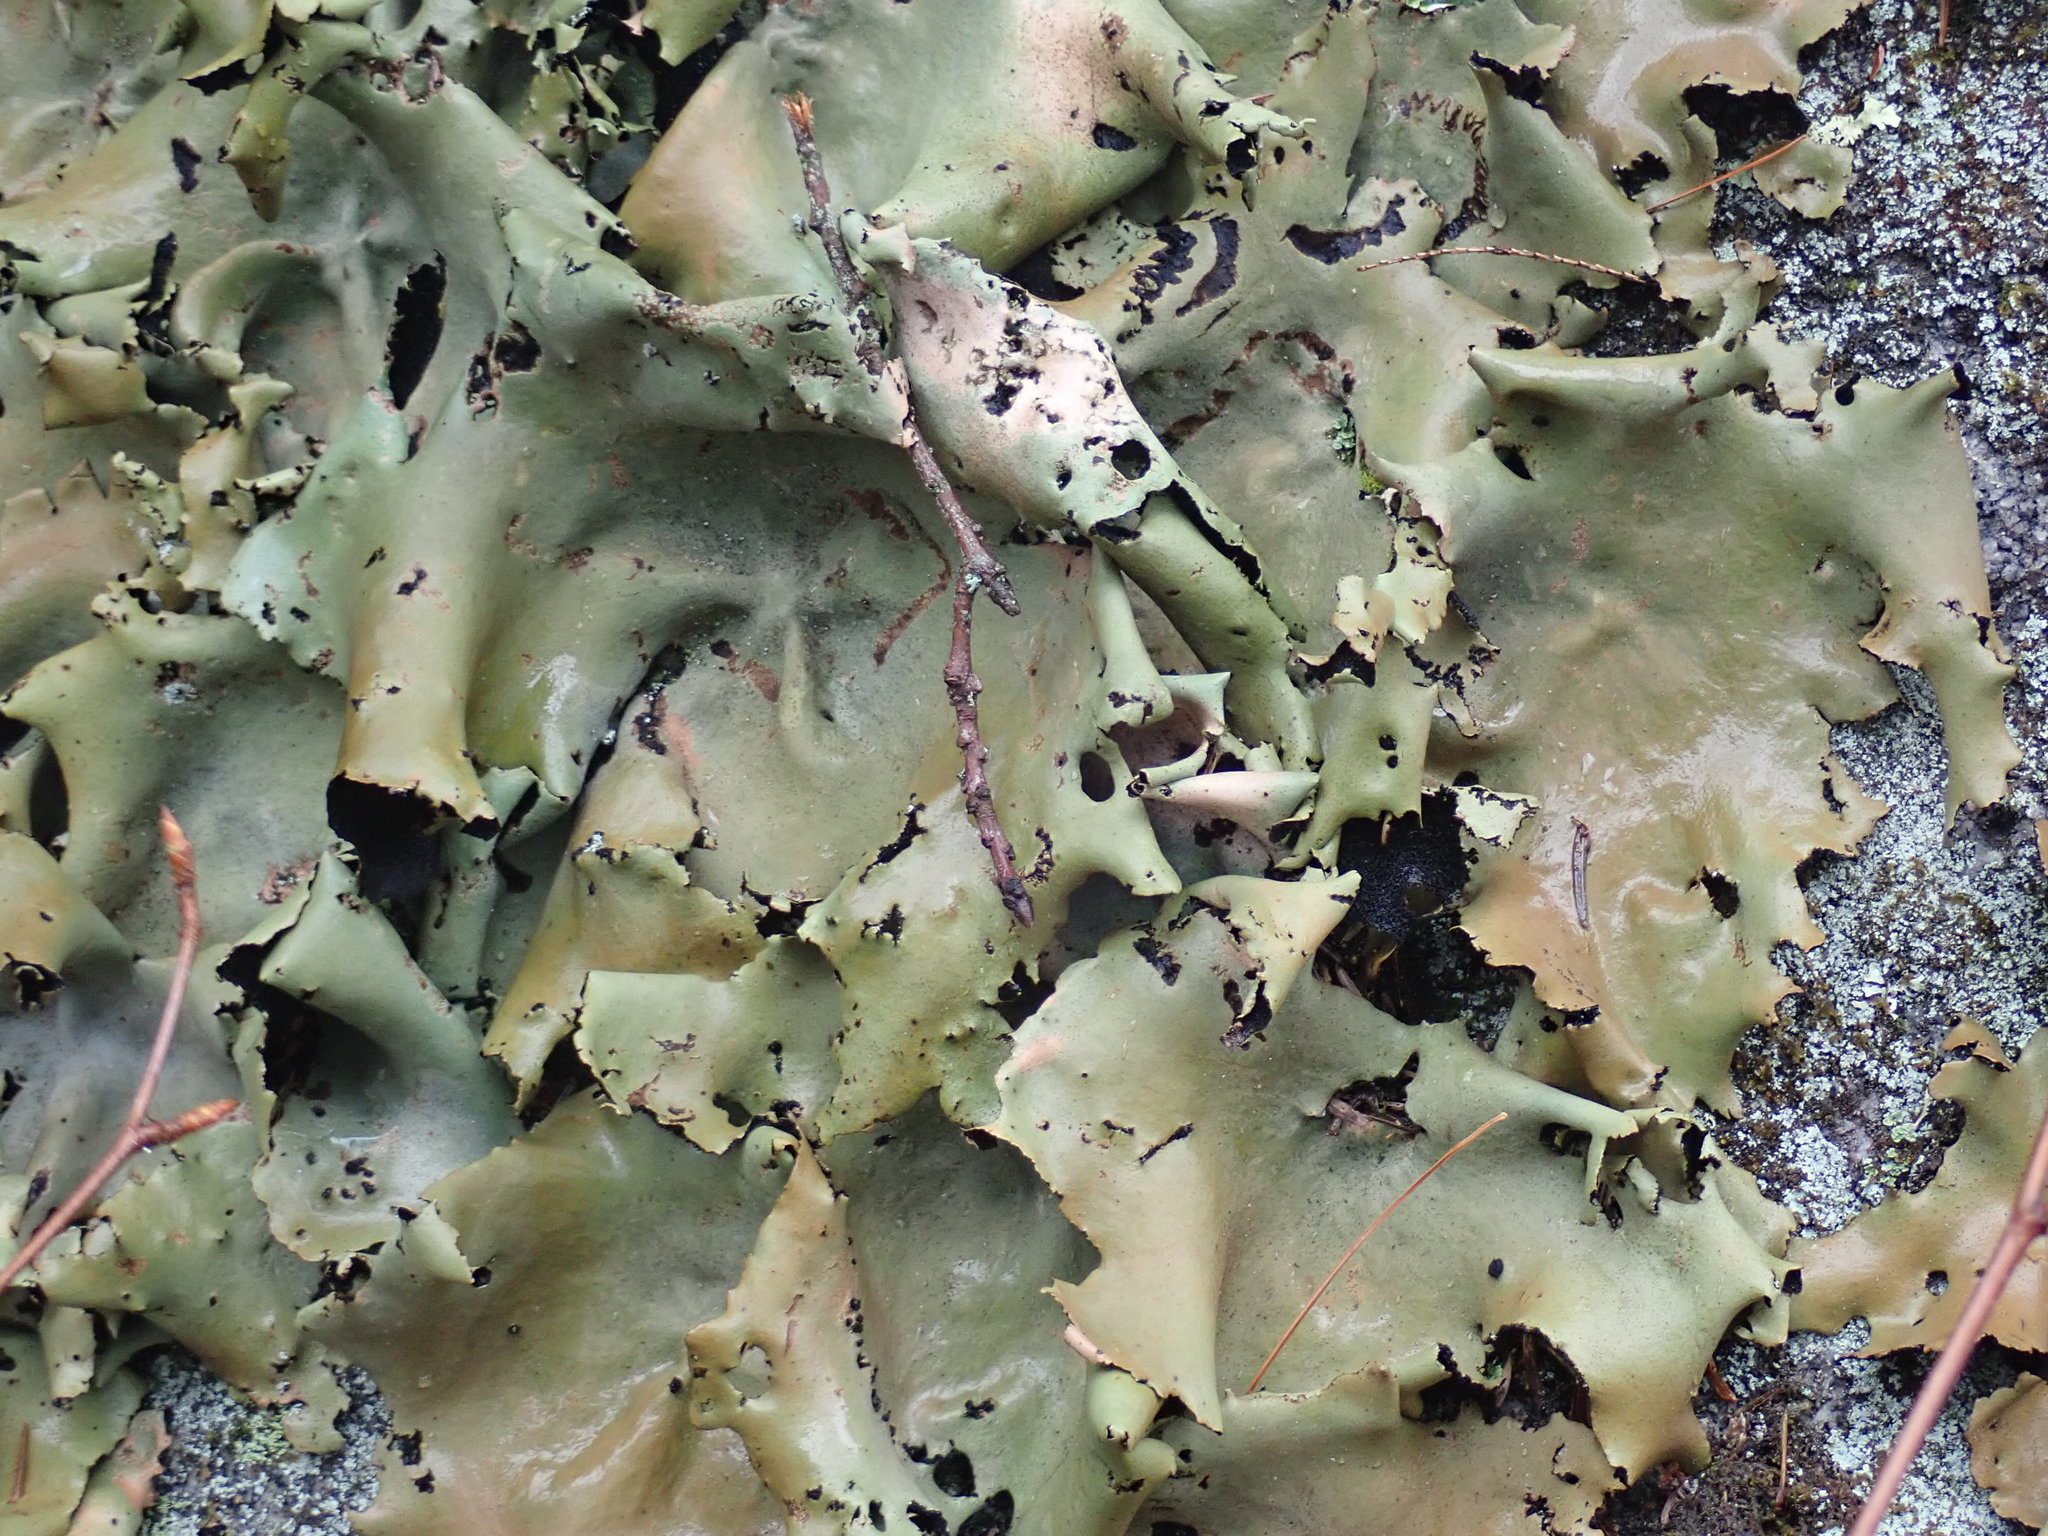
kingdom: Fungi
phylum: Ascomycota
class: Lecanoromycetes
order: Umbilicariales
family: Umbilicariaceae
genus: Umbilicaria
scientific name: Umbilicaria mammulata
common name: Smooth rock tripe
